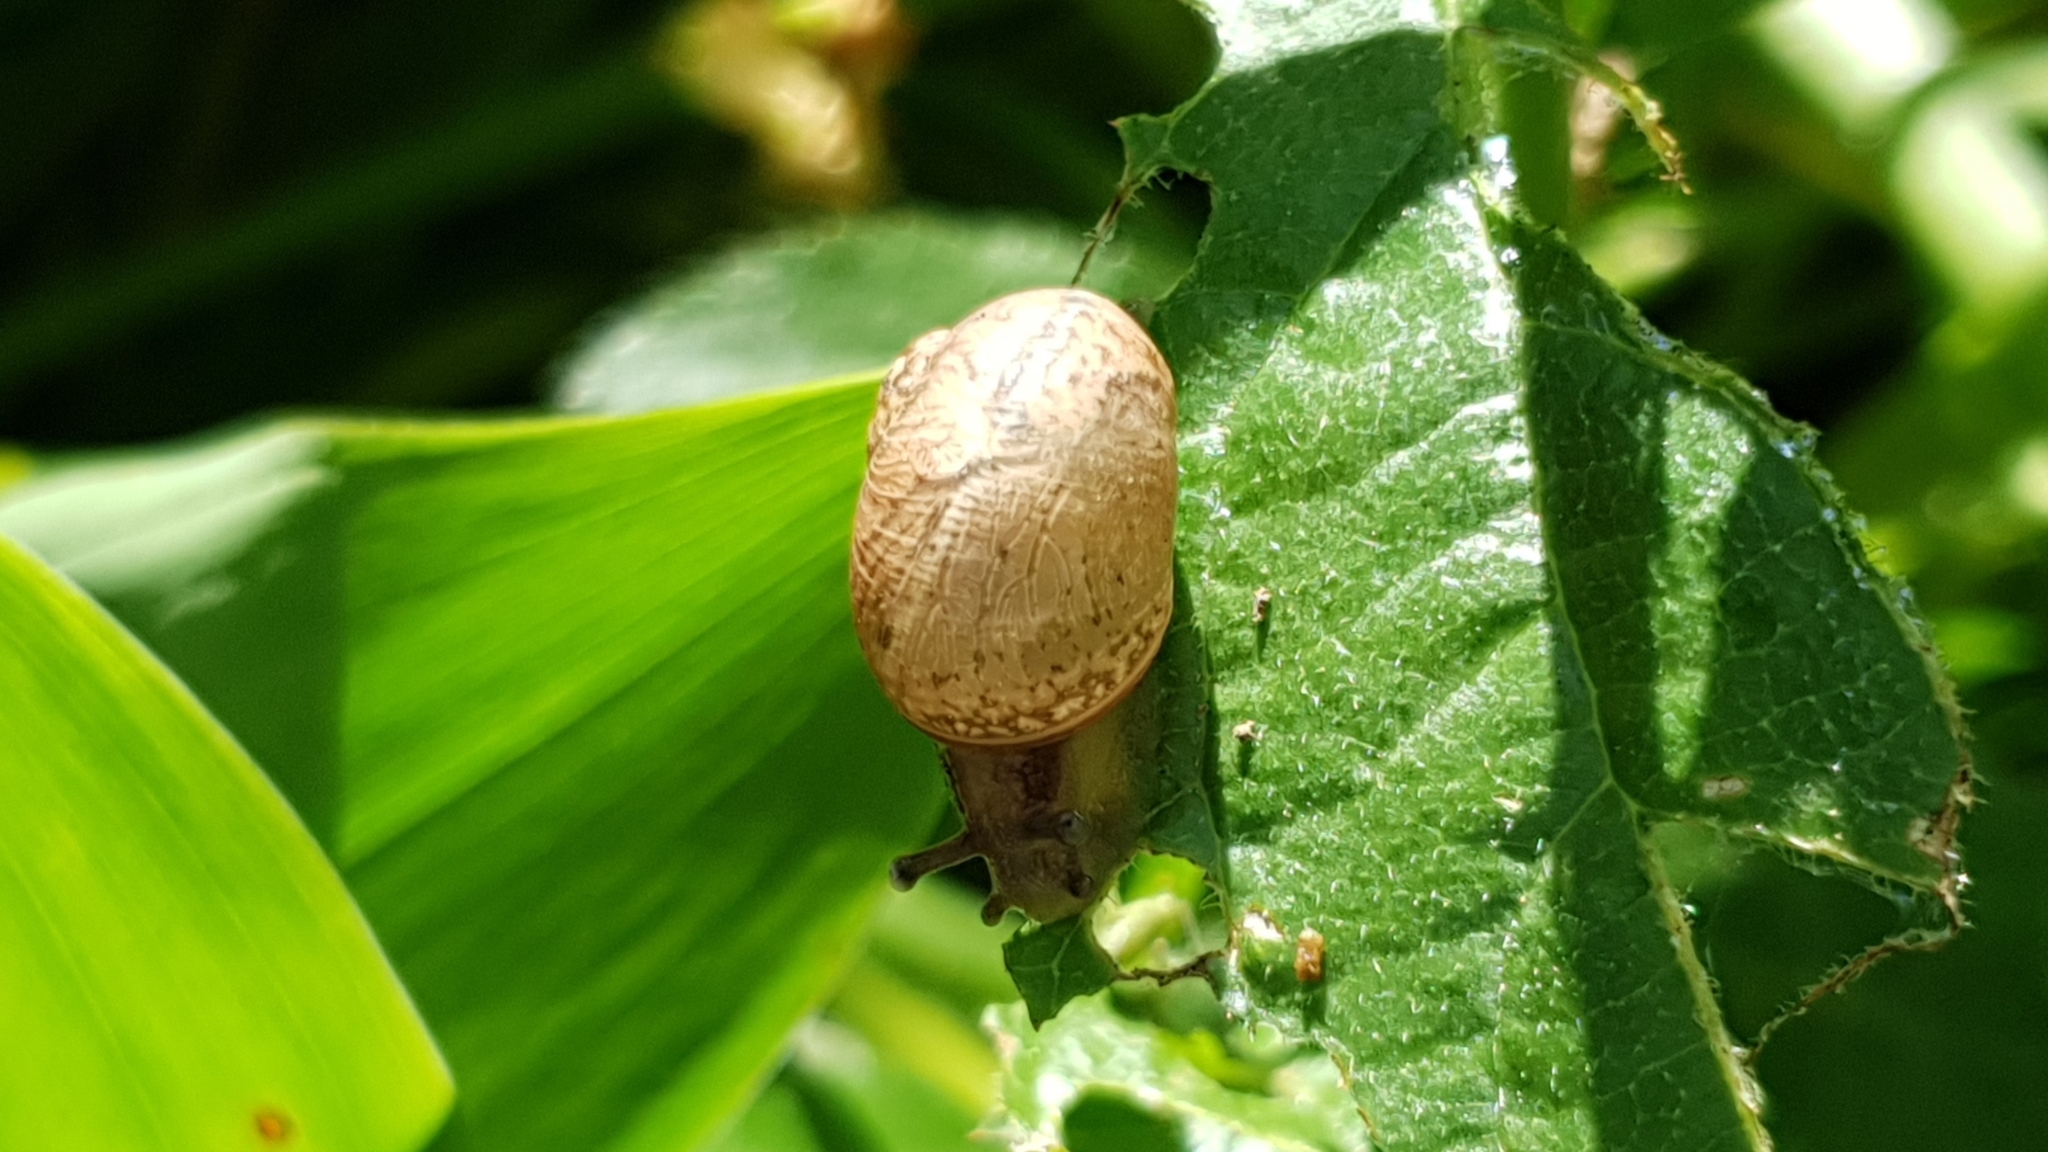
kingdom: Animalia
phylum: Mollusca
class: Gastropoda
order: Stylommatophora
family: Helicidae
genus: Cornu
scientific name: Cornu aspersum
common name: Brown garden snail
